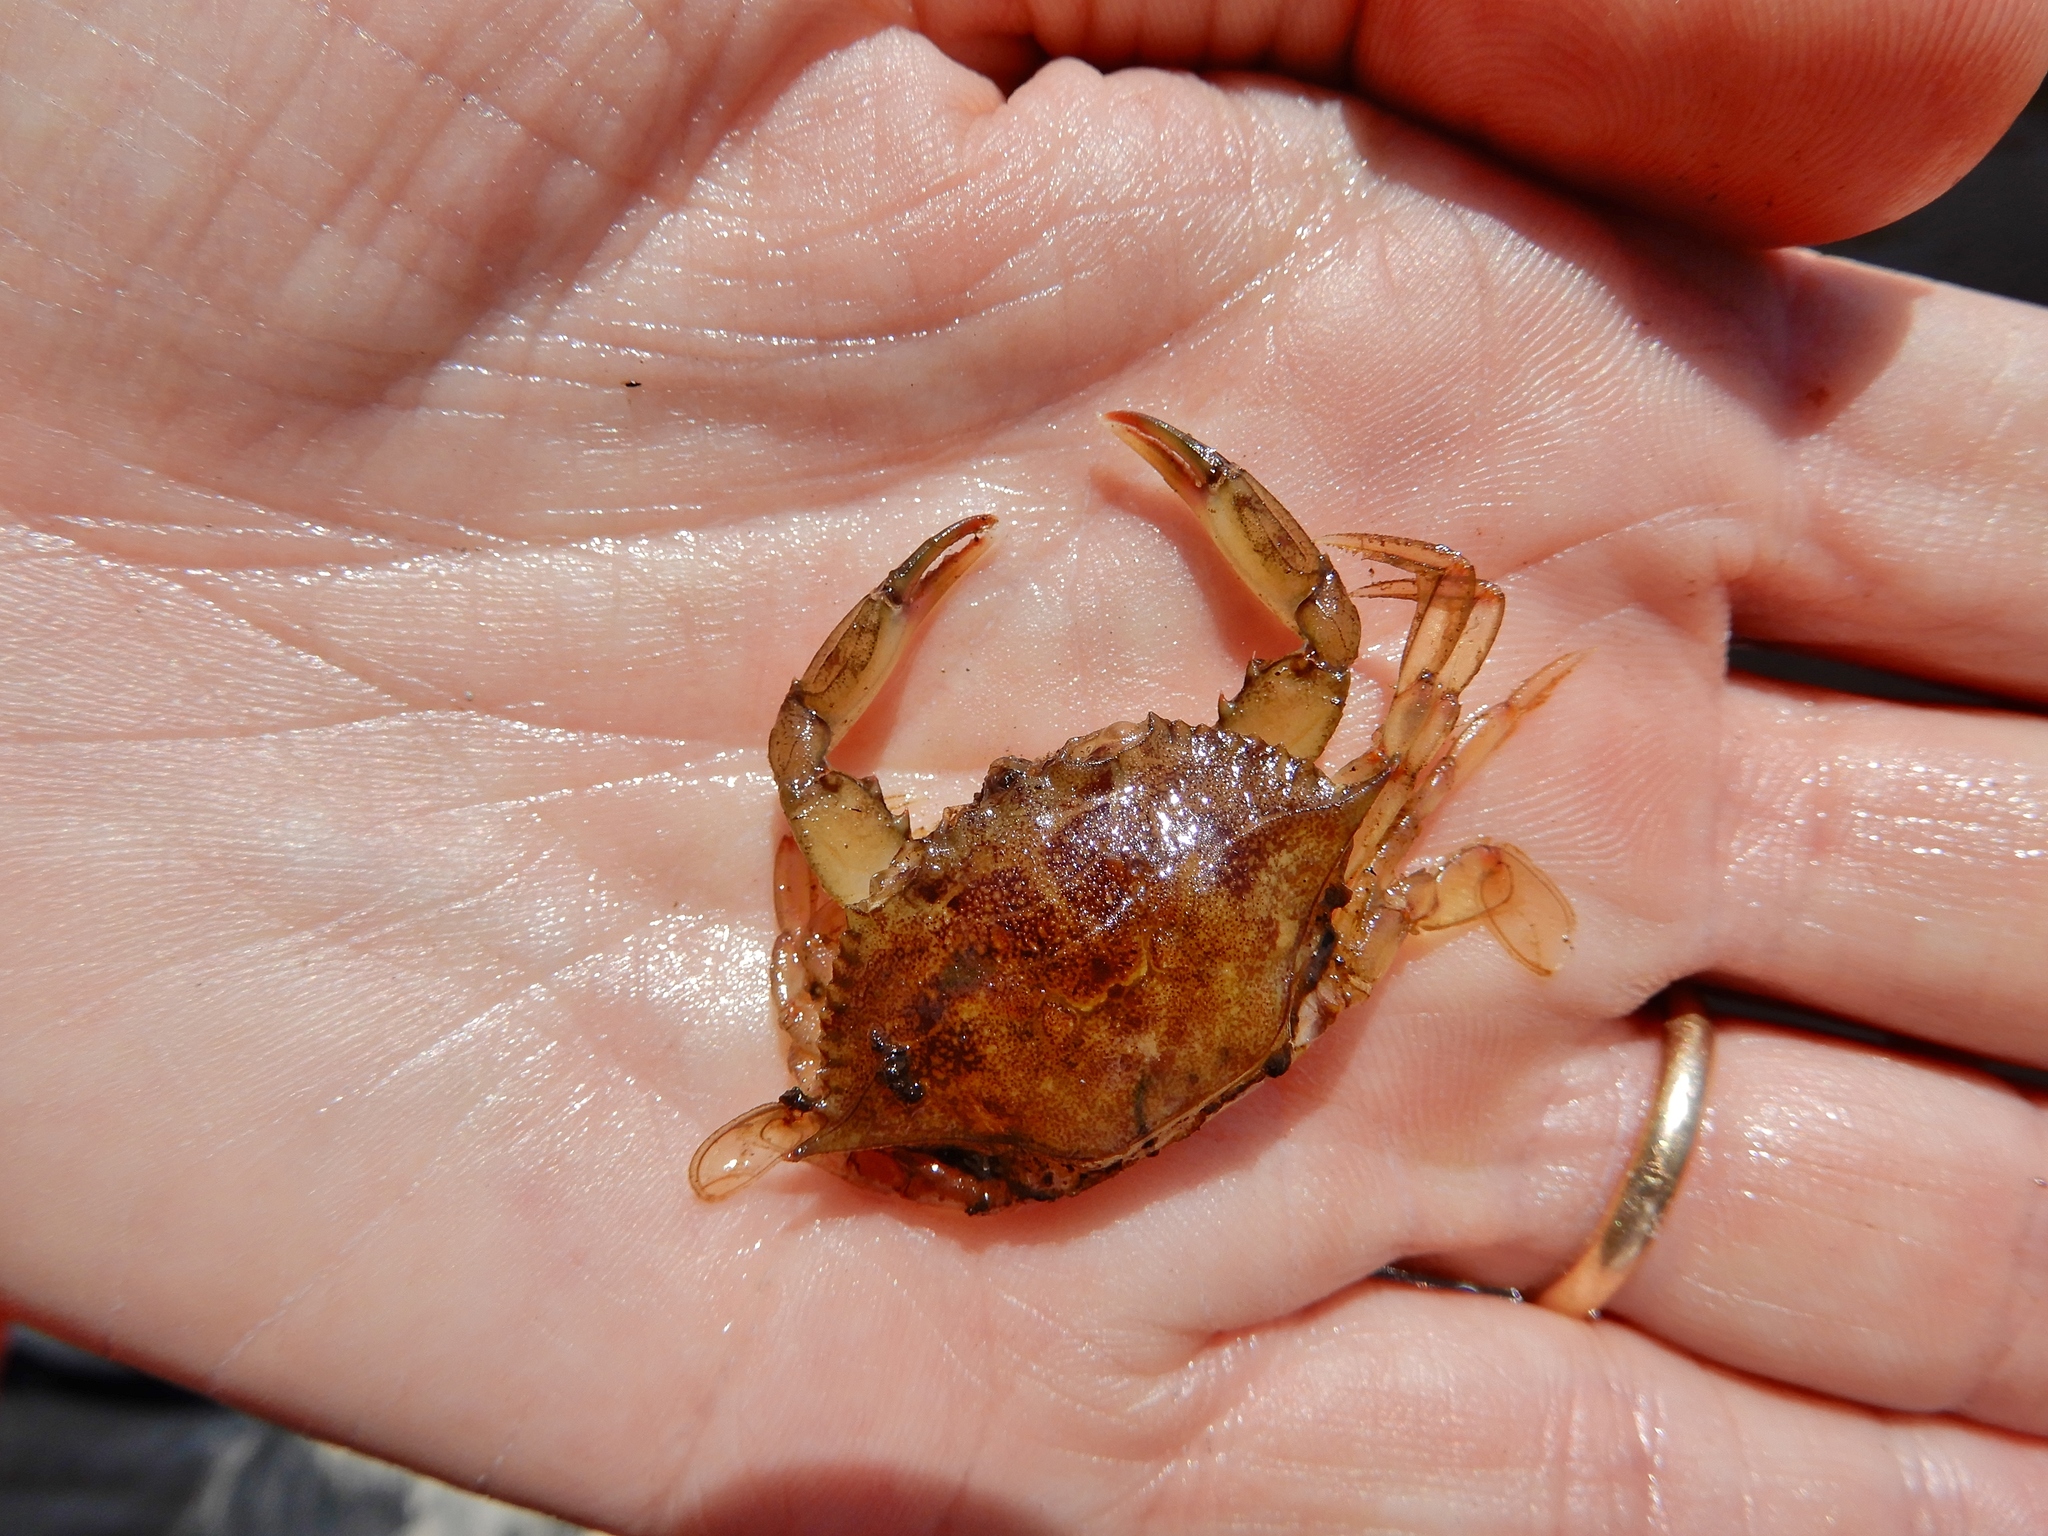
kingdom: Animalia
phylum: Arthropoda
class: Malacostraca
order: Decapoda
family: Portunidae
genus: Callinectes
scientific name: Callinectes sapidus
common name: Blue crab
